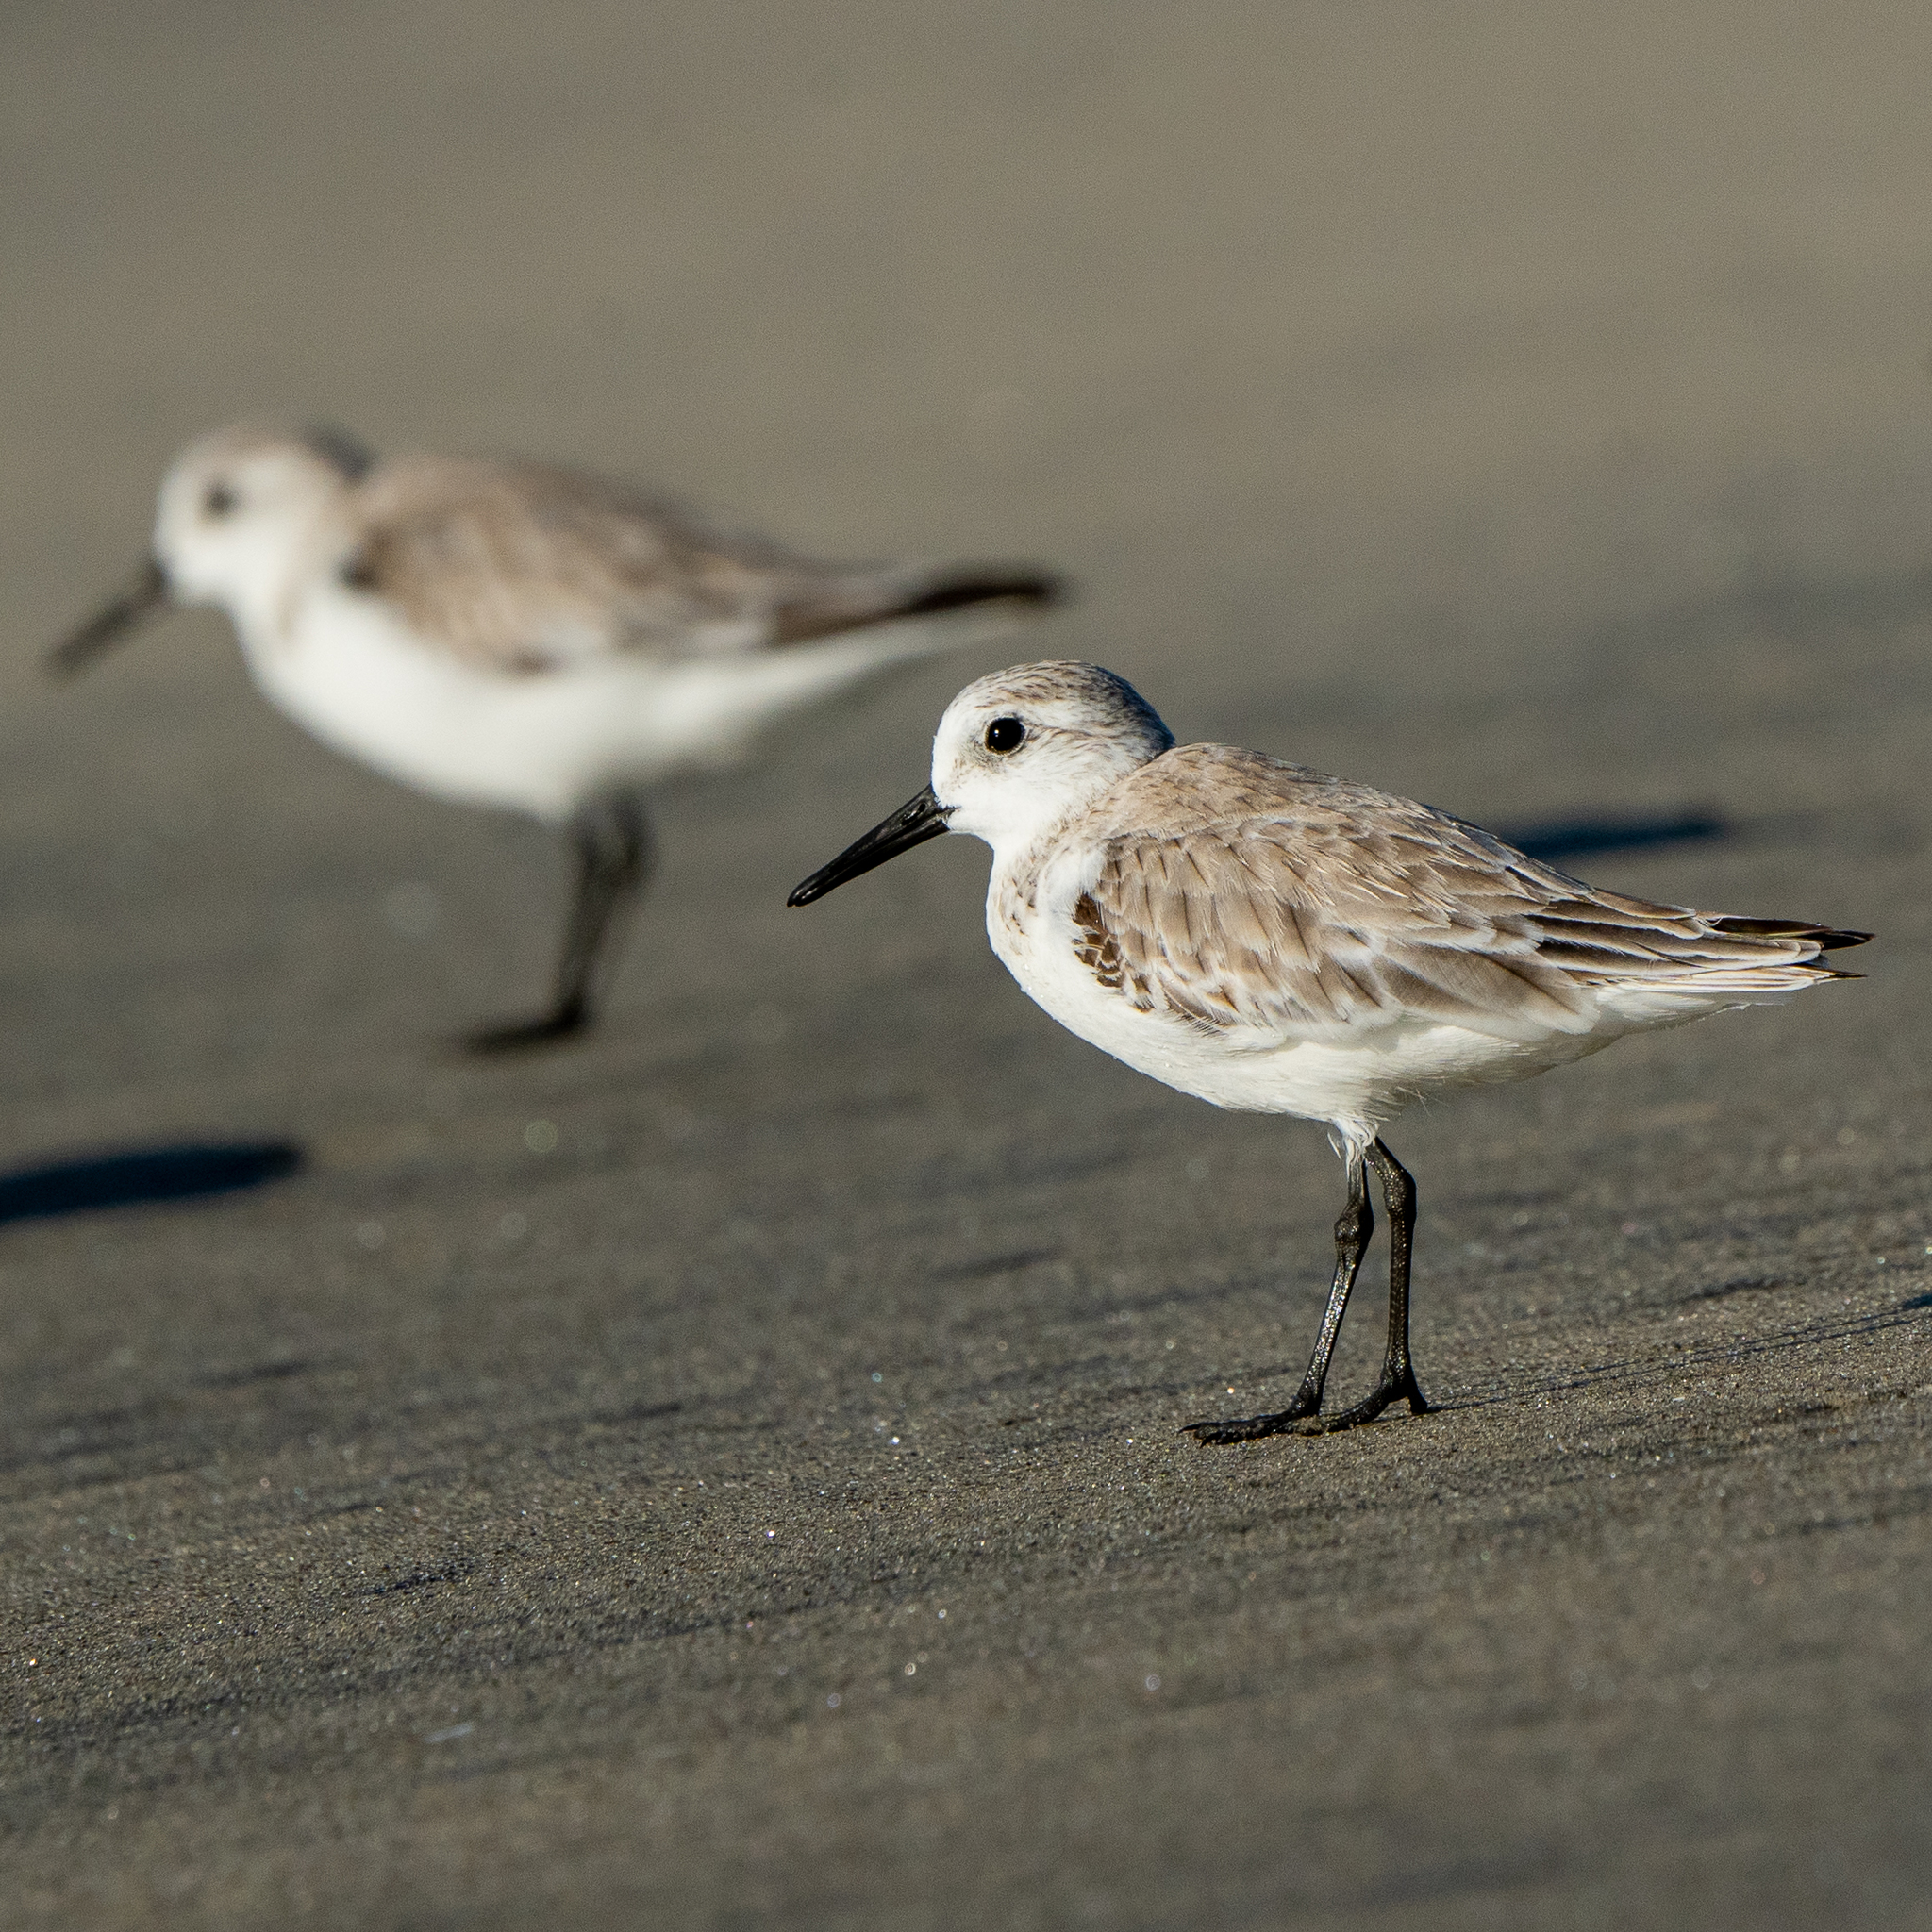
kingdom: Animalia
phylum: Chordata
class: Aves
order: Charadriiformes
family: Scolopacidae
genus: Calidris
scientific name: Calidris alba
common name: Sanderling
